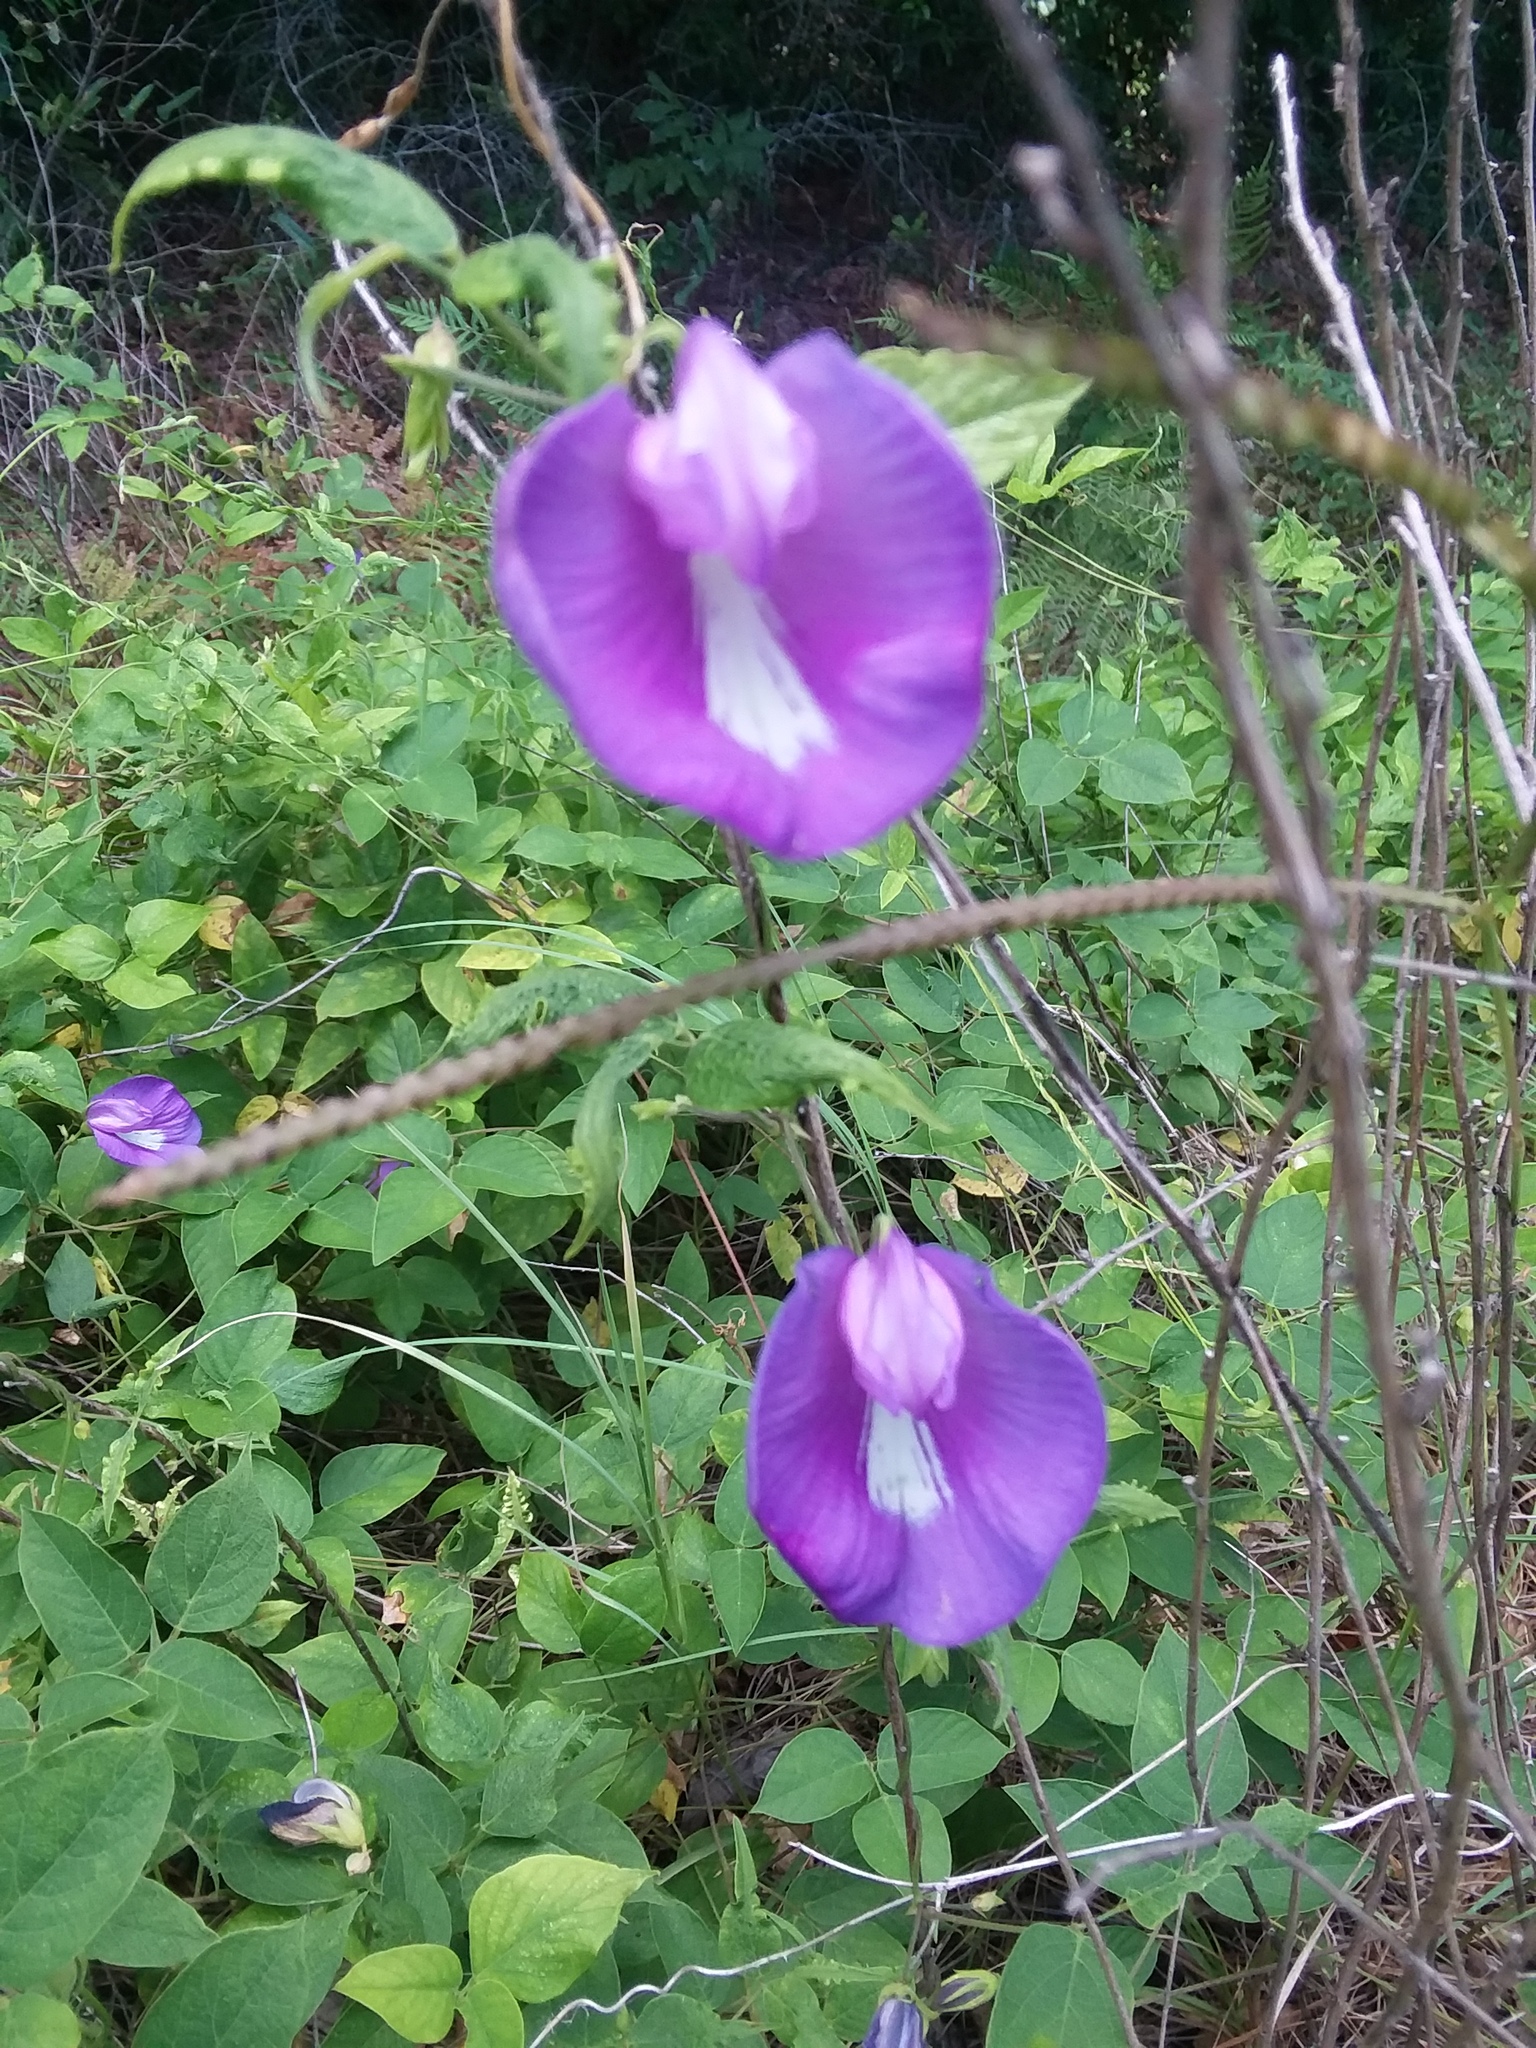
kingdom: Plantae
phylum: Tracheophyta
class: Magnoliopsida
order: Fabales
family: Fabaceae
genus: Centrosema
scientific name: Centrosema virginianum
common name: Butterfly-pea
